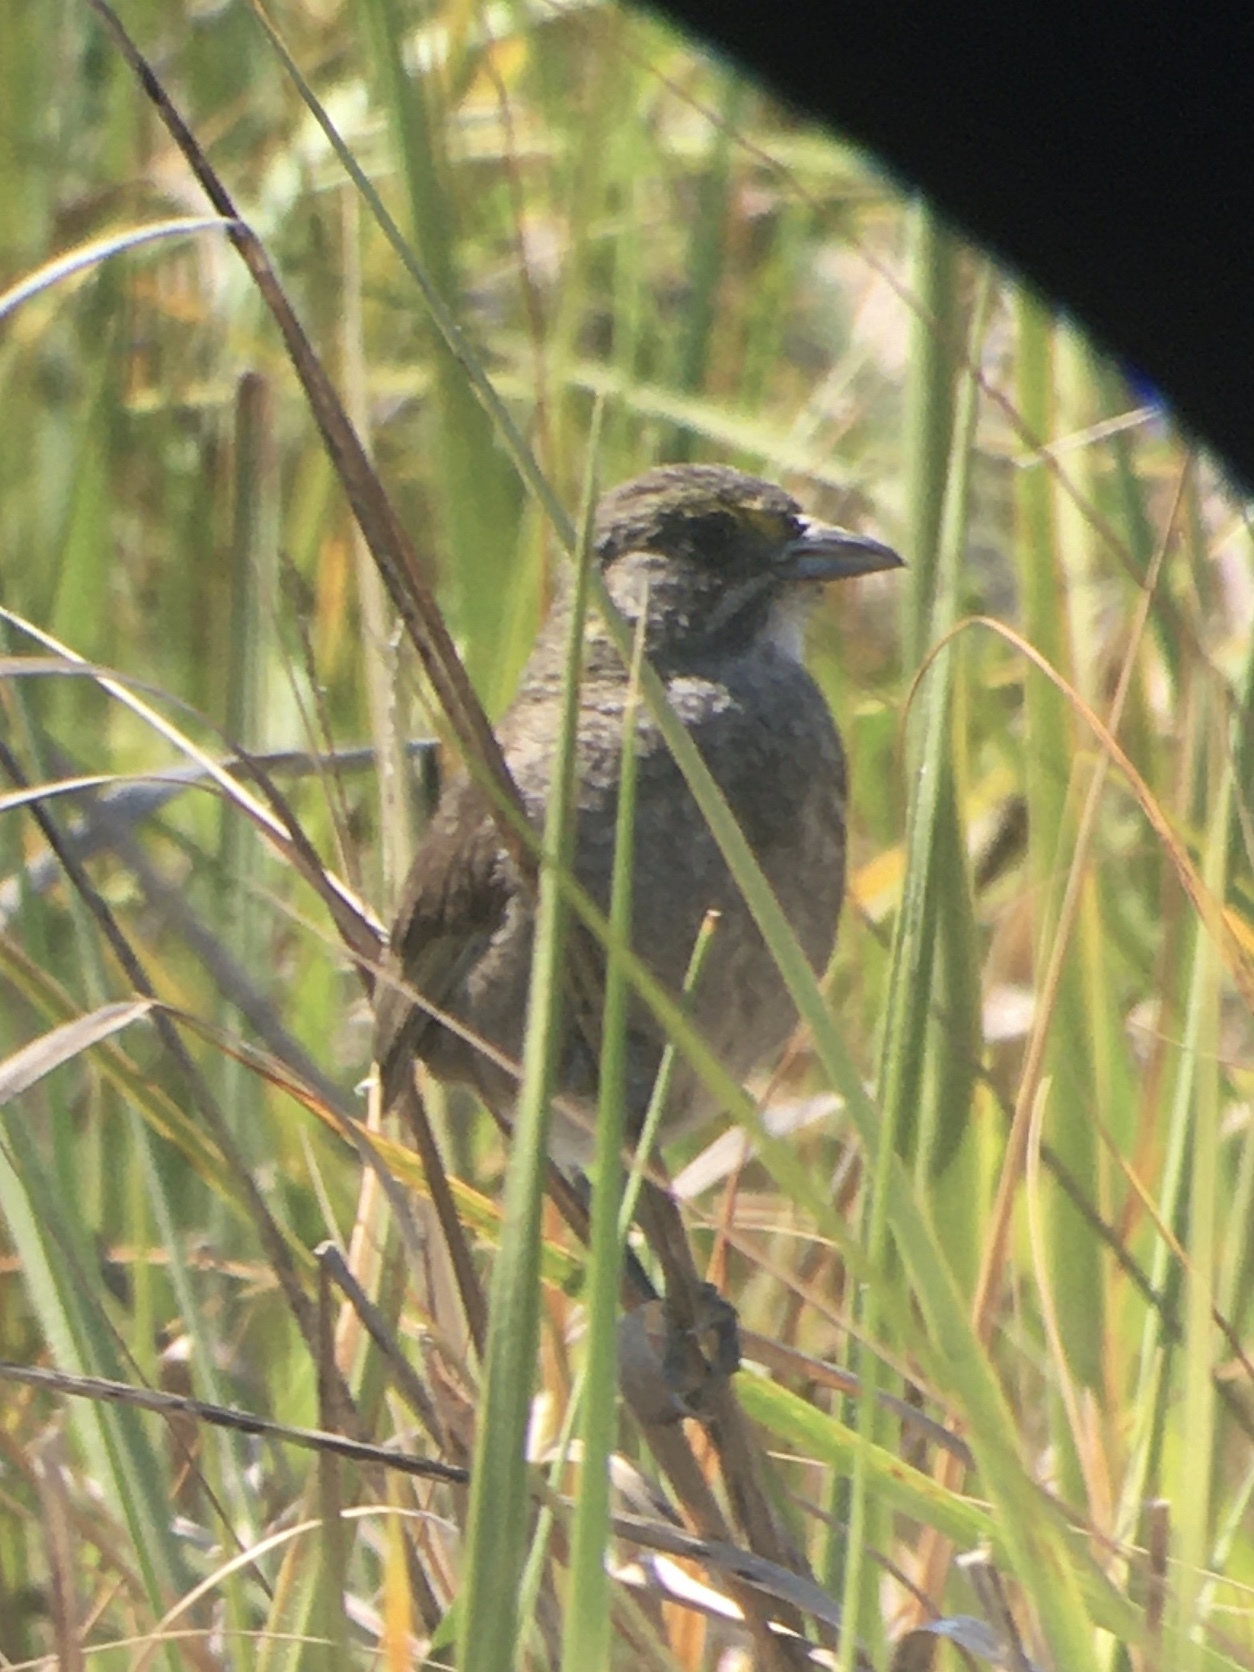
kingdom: Animalia
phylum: Chordata
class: Aves
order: Passeriformes
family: Passerellidae
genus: Ammospiza
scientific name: Ammospiza maritima
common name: Seaside sparrow
